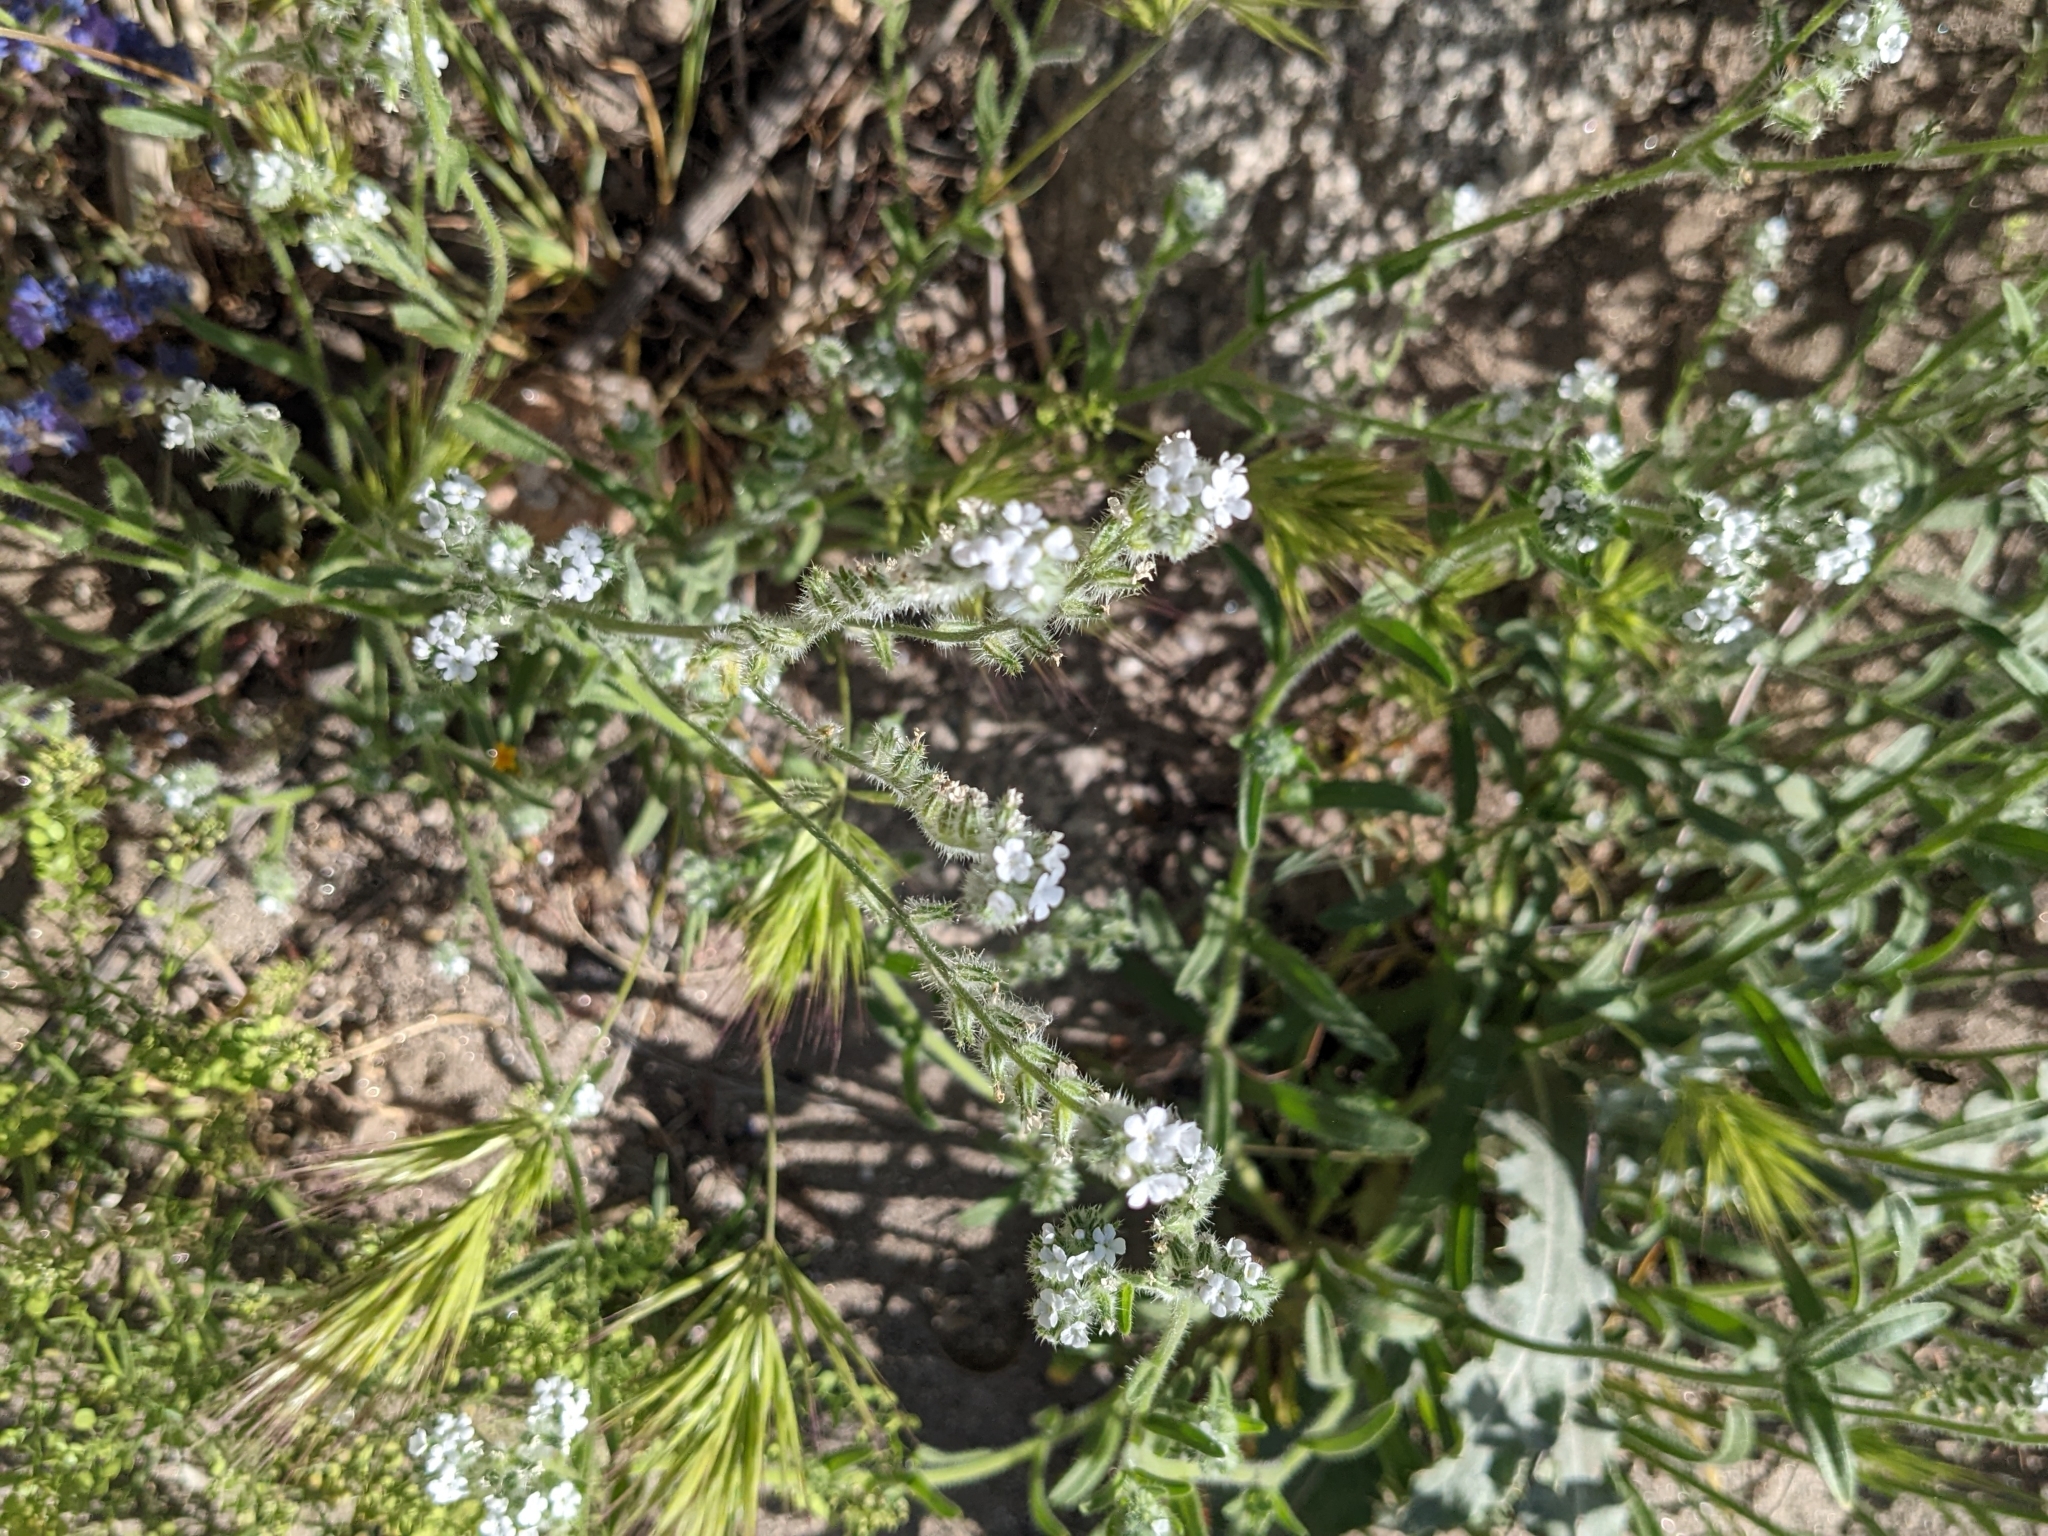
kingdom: Plantae
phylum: Tracheophyta
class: Magnoliopsida
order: Boraginales
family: Boraginaceae
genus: Cryptantha
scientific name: Cryptantha
